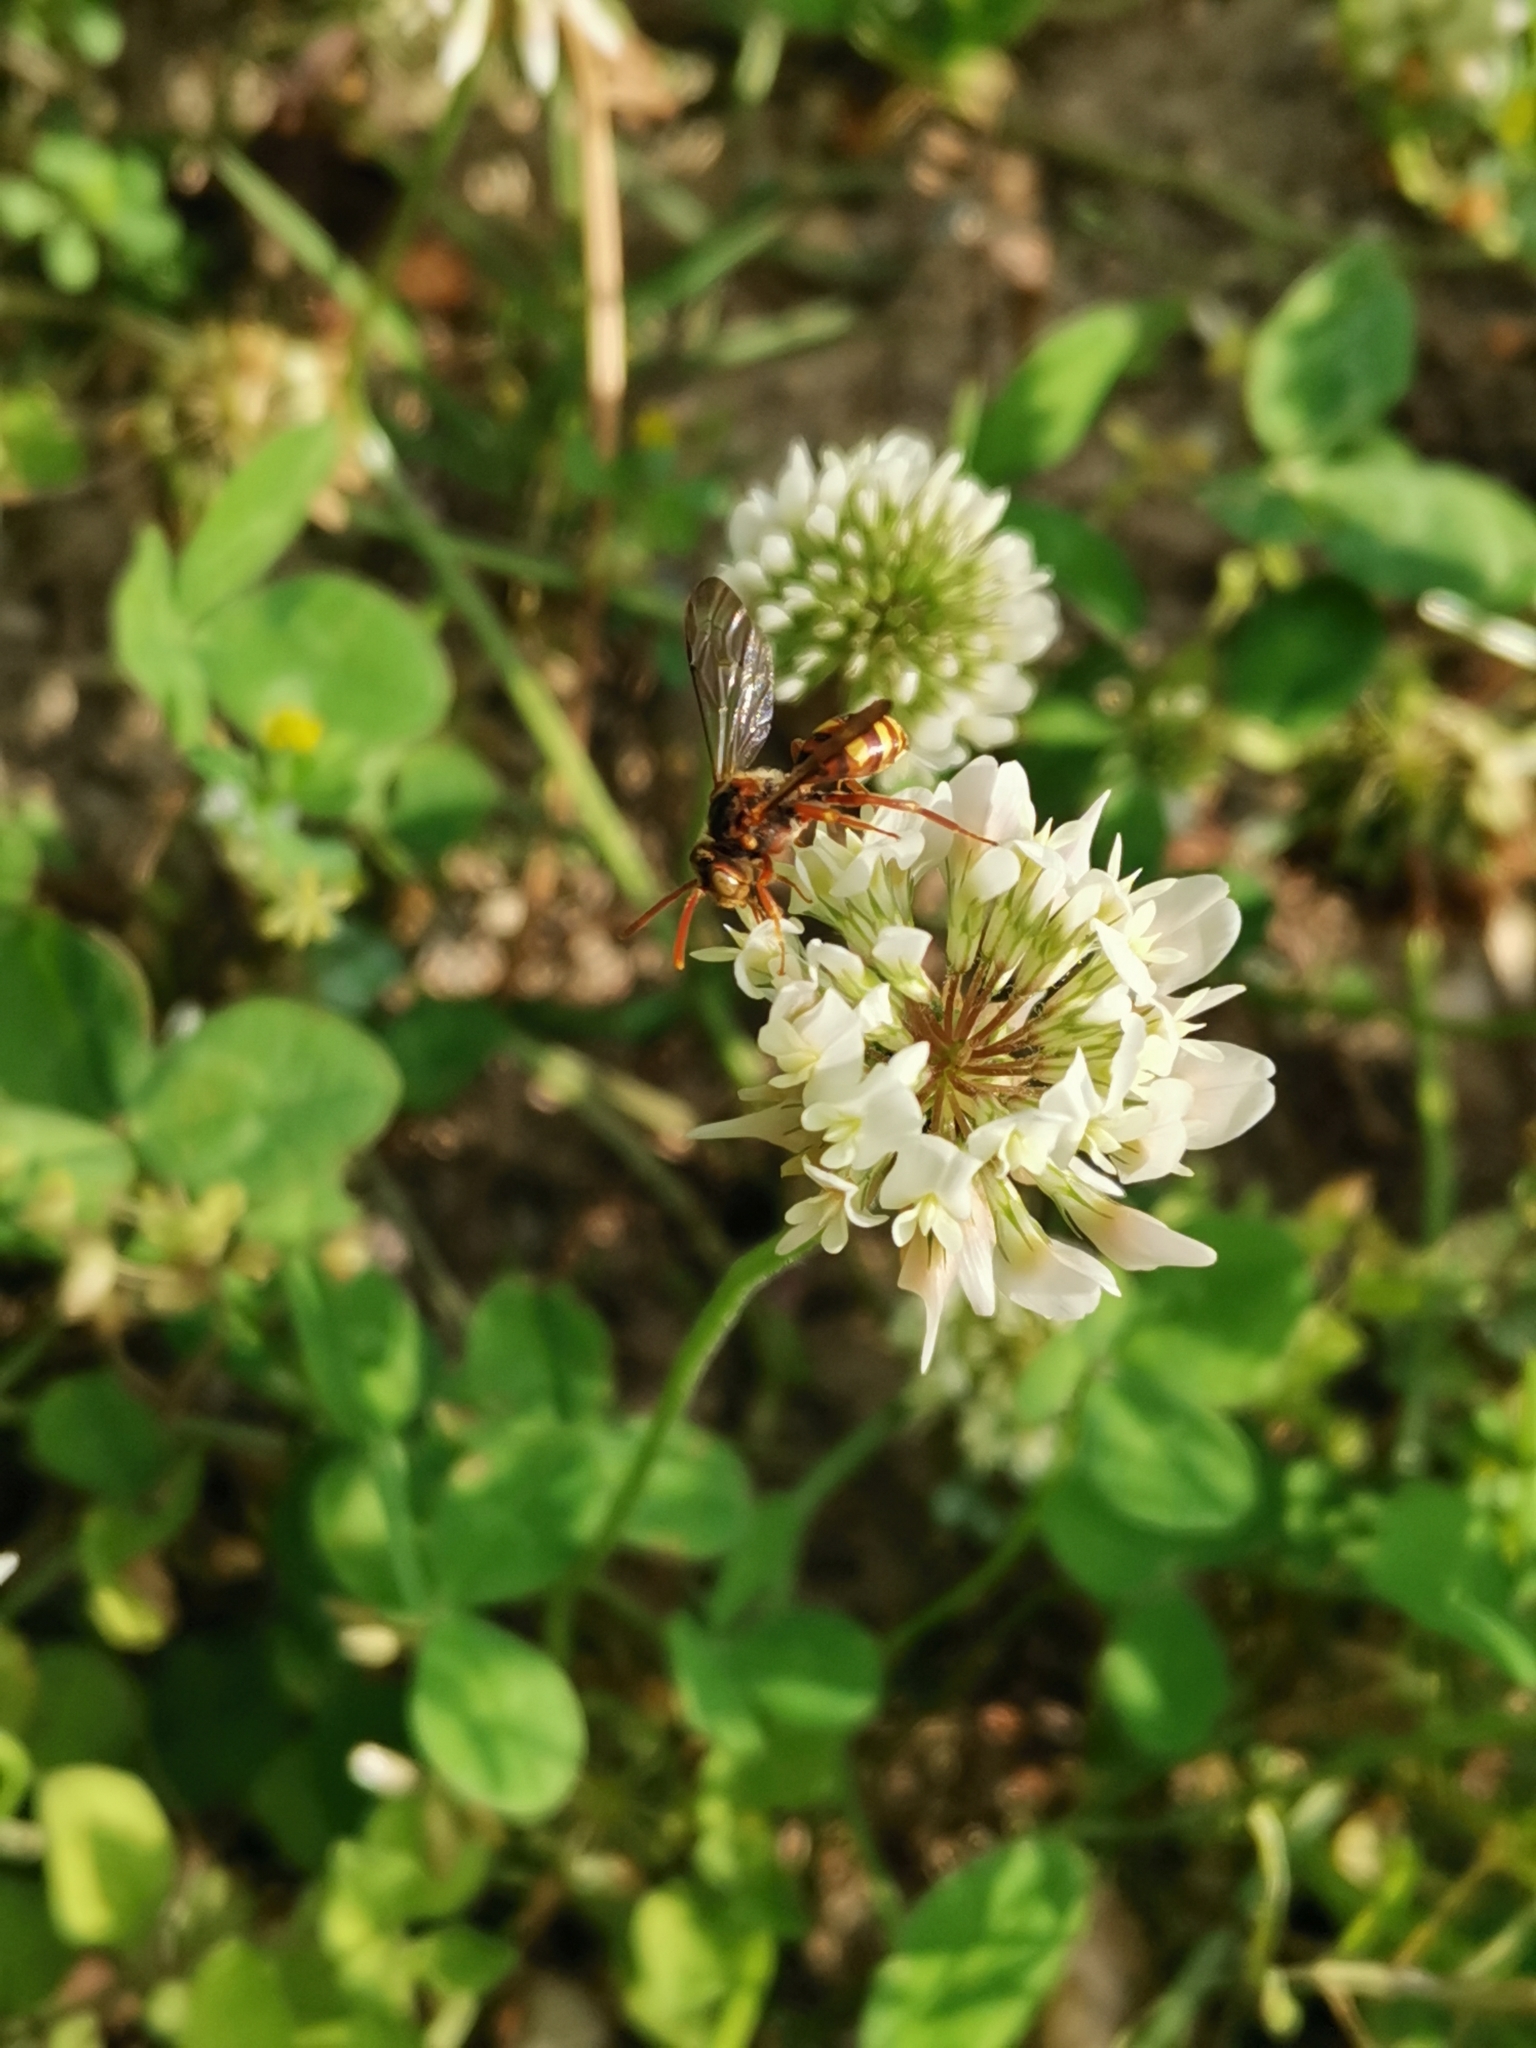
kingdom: Animalia
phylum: Arthropoda
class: Insecta
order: Hymenoptera
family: Apidae
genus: Nomada
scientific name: Nomada japonica
